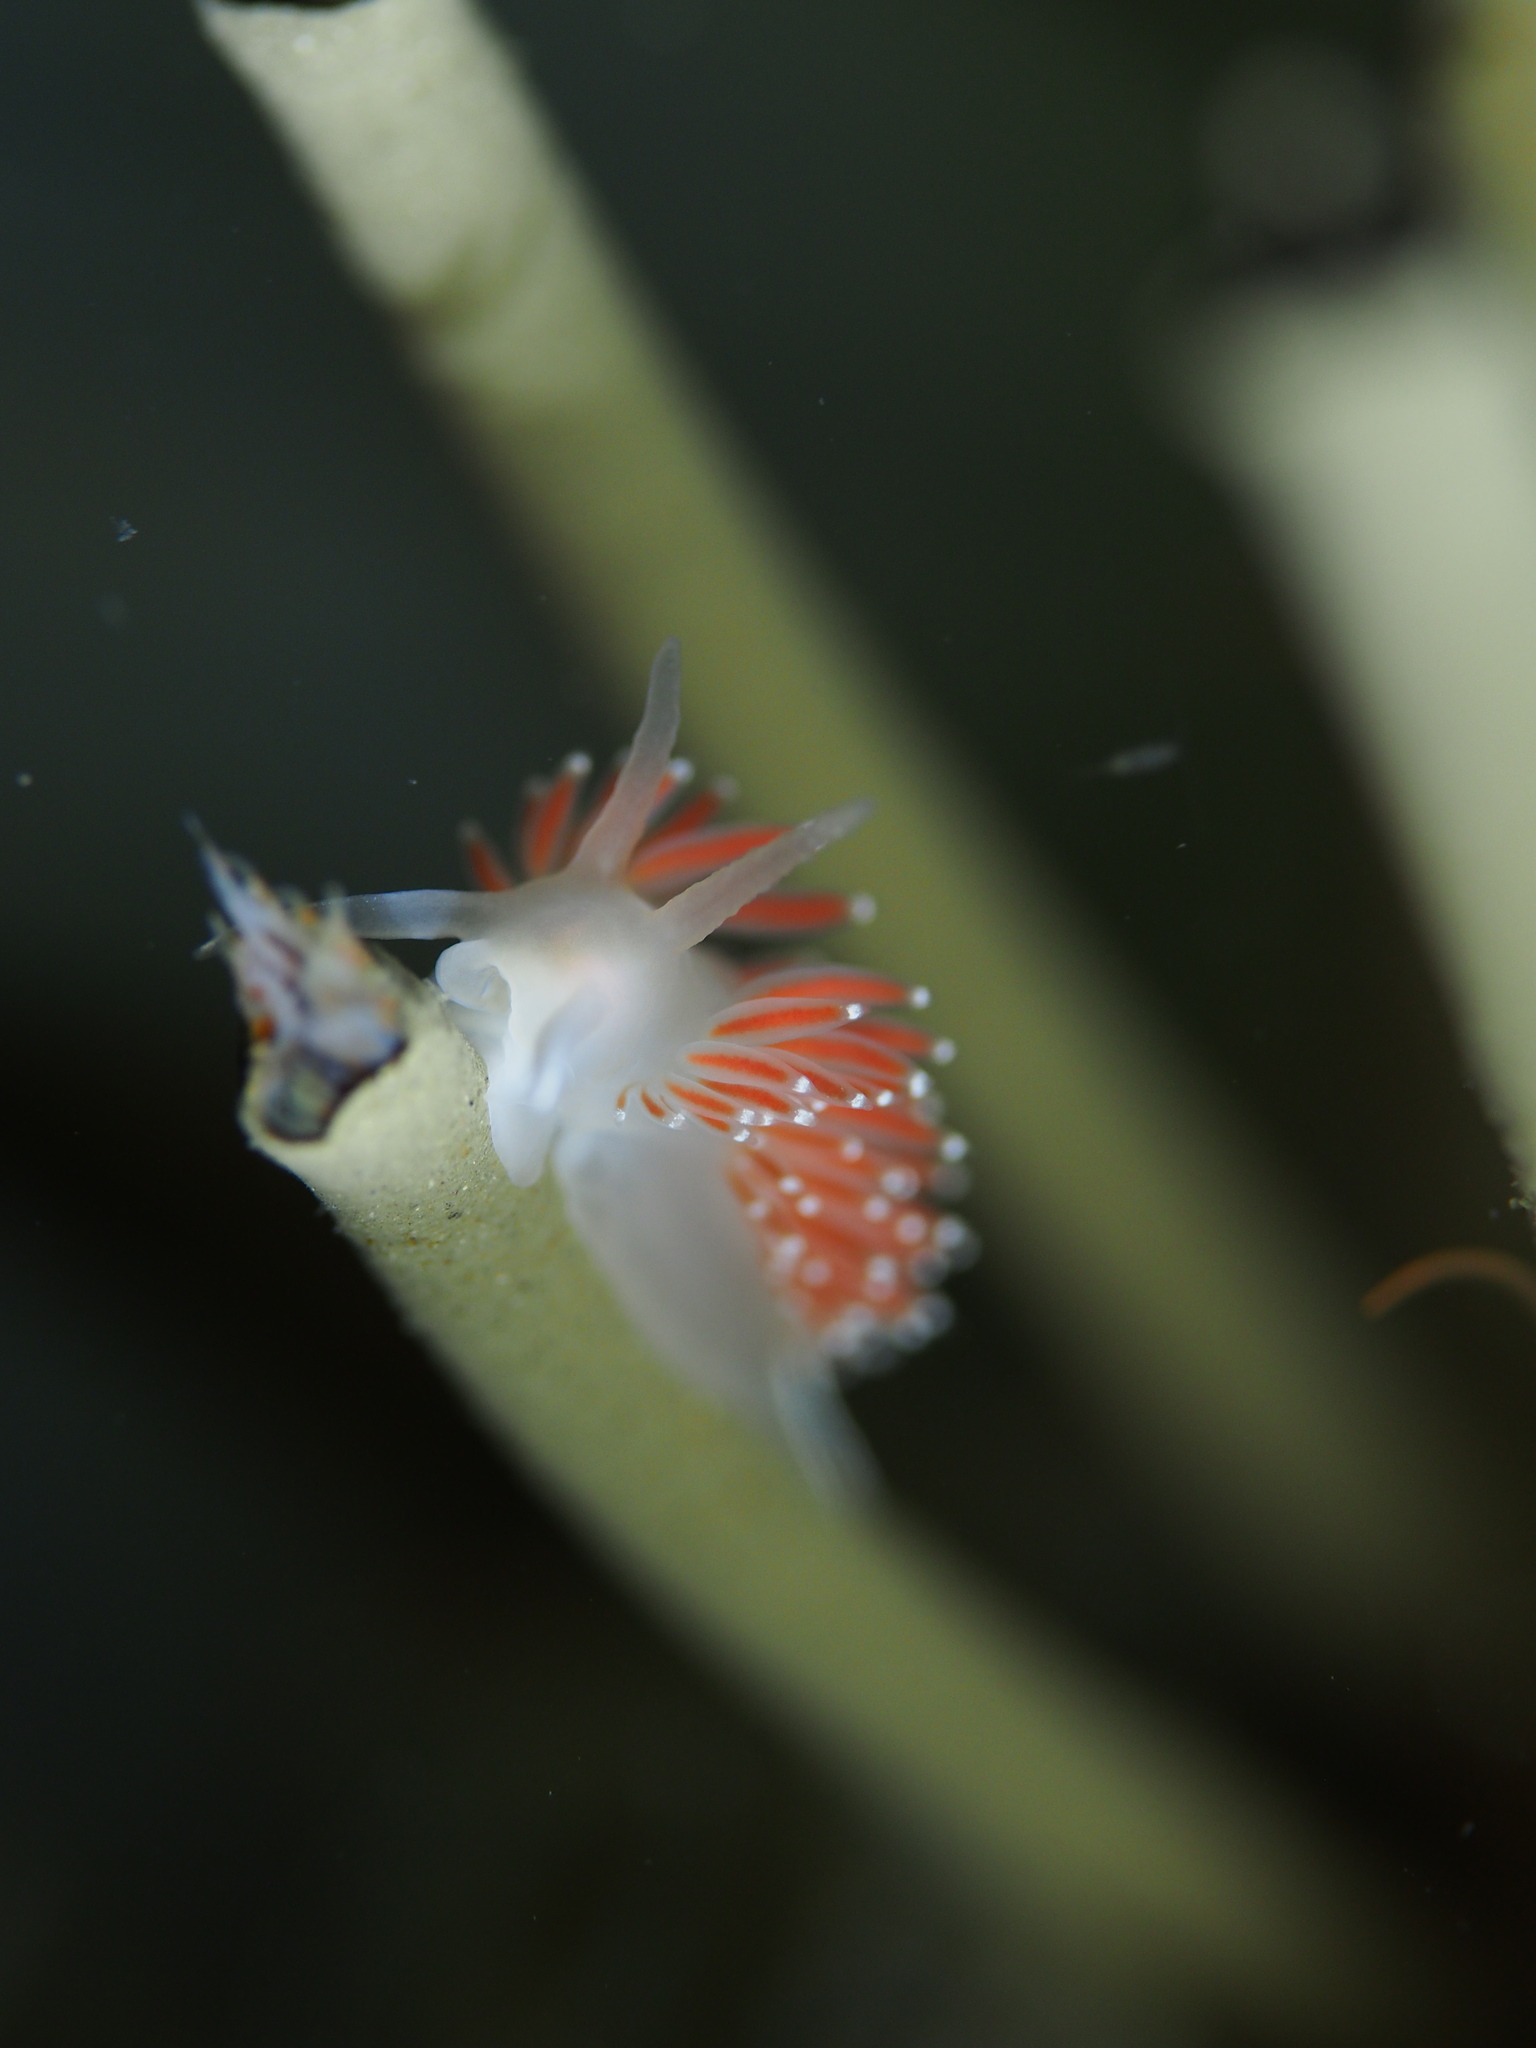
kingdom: Animalia
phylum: Mollusca
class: Gastropoda
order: Nudibranchia
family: Coryphellidae
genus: Coryphella
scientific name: Coryphella verrucosa
